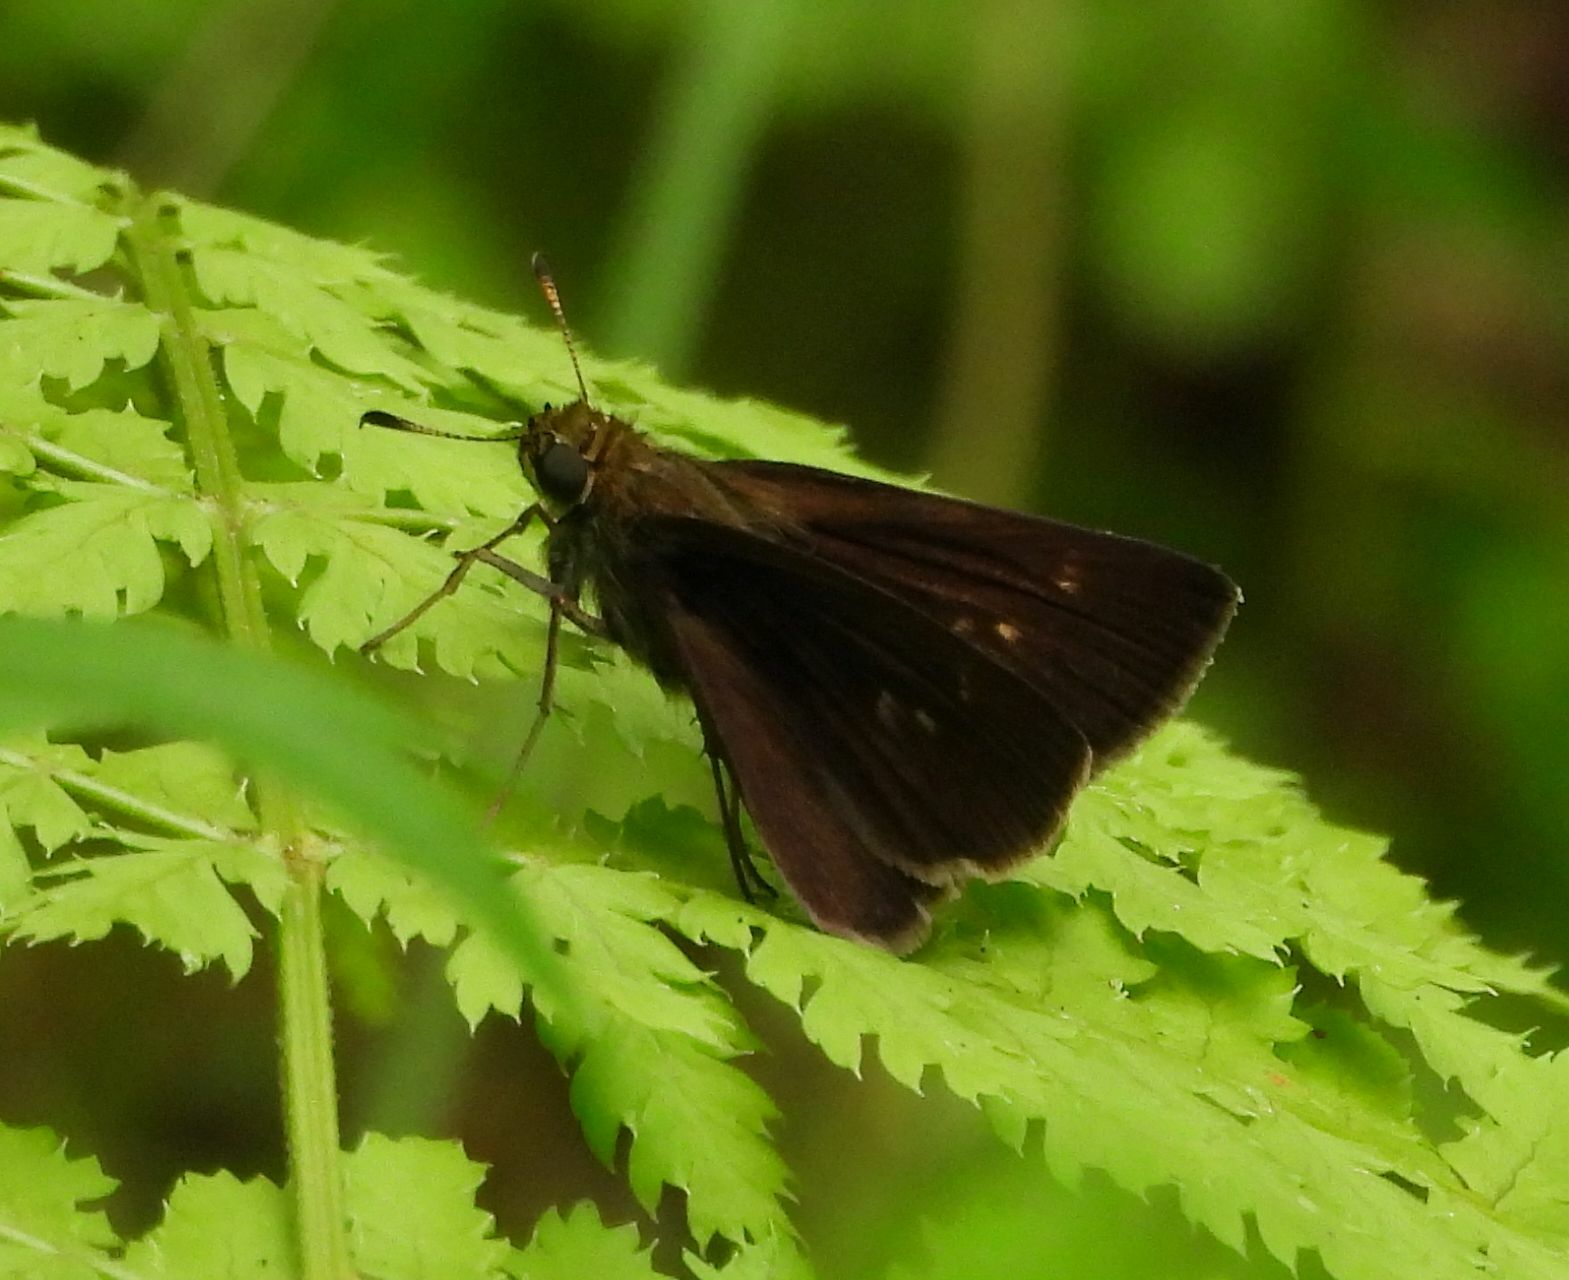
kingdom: Animalia
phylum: Arthropoda
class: Insecta
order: Lepidoptera
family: Hesperiidae
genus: Euphyes
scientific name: Euphyes vestris
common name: Dun skipper
